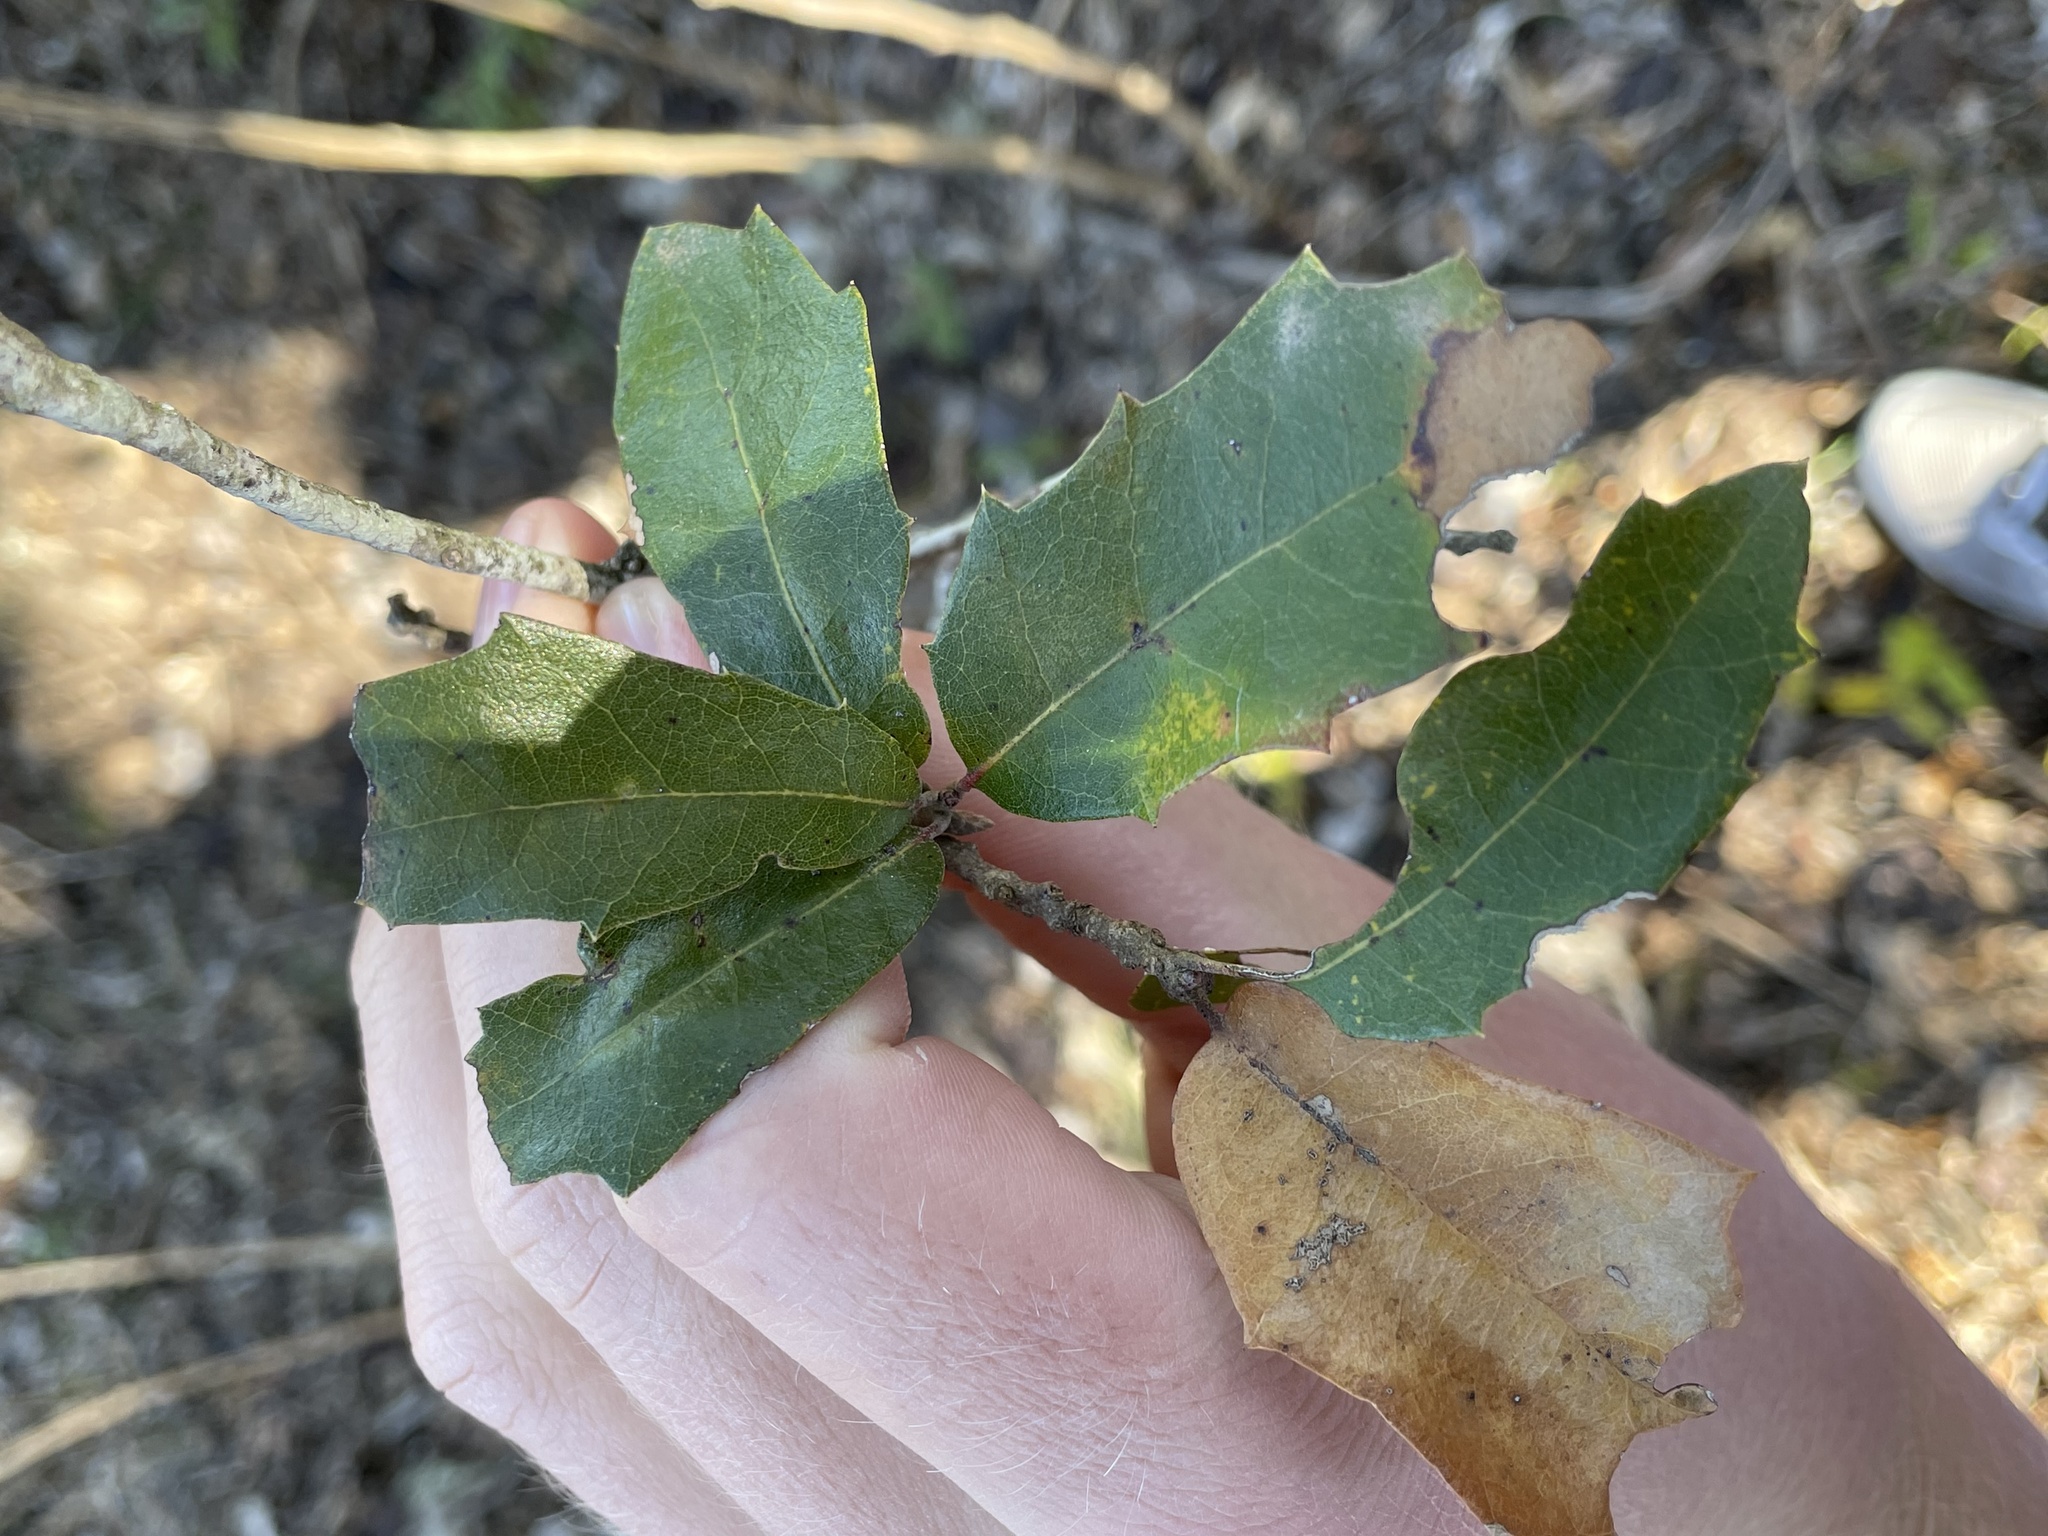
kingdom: Plantae
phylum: Tracheophyta
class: Magnoliopsida
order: Fagales
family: Fagaceae
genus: Quercus
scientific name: Quercus fusiformis
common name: Texas live oak
